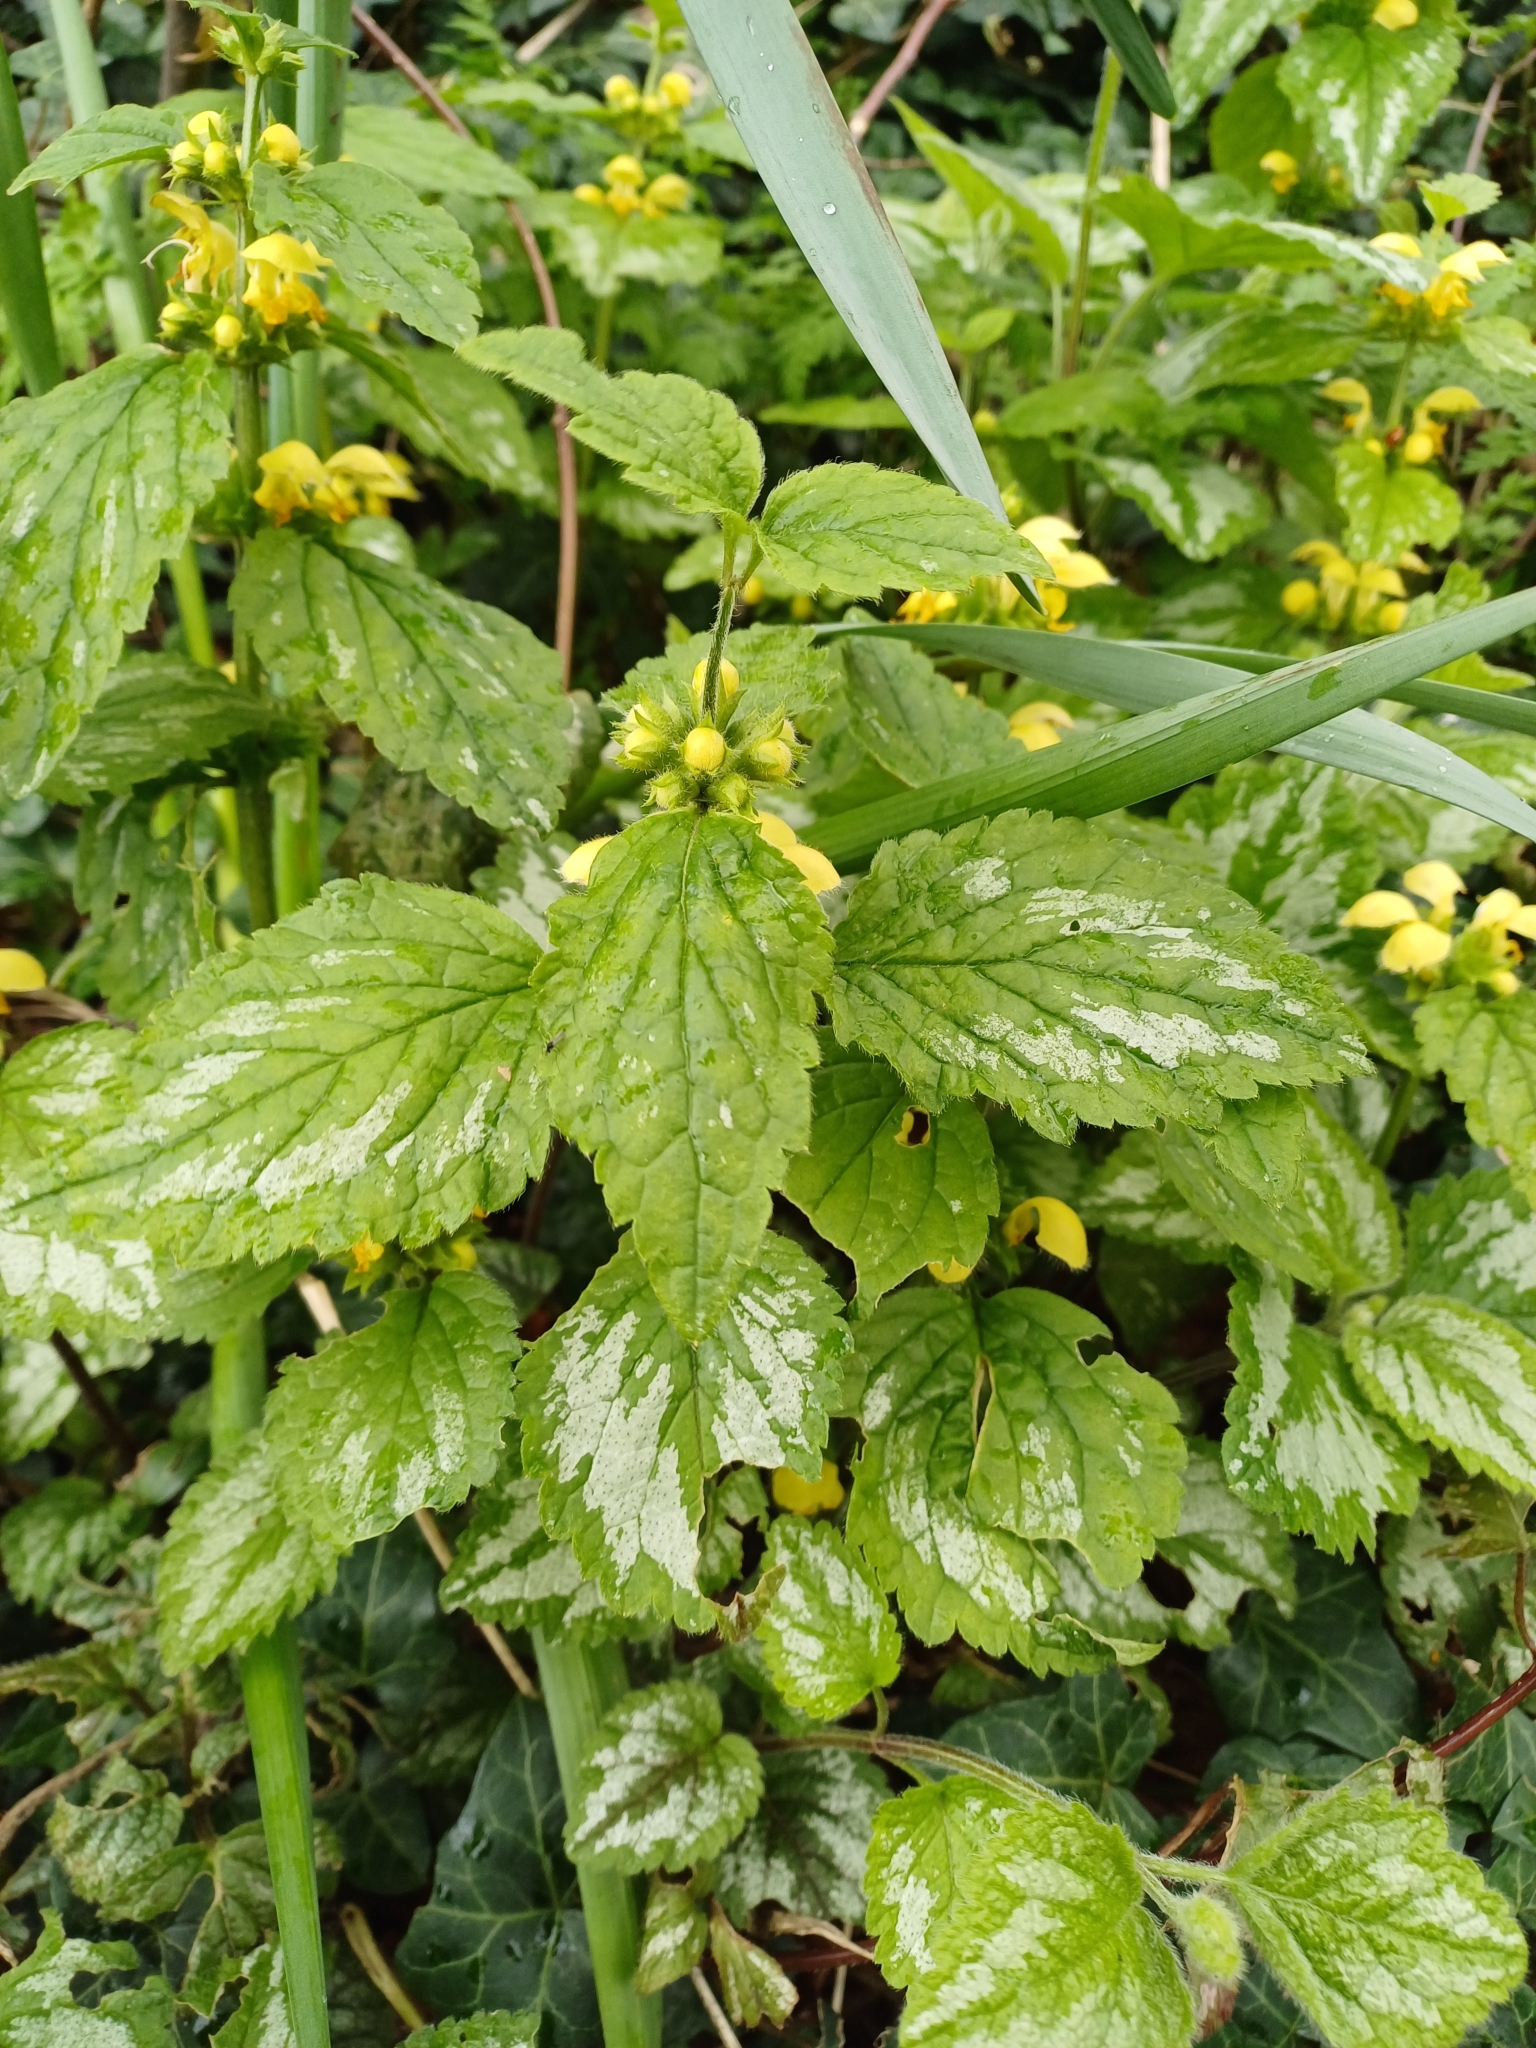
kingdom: Plantae
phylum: Tracheophyta
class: Magnoliopsida
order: Lamiales
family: Lamiaceae
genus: Lamium
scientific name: Lamium galeobdolon
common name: Yellow archangel
